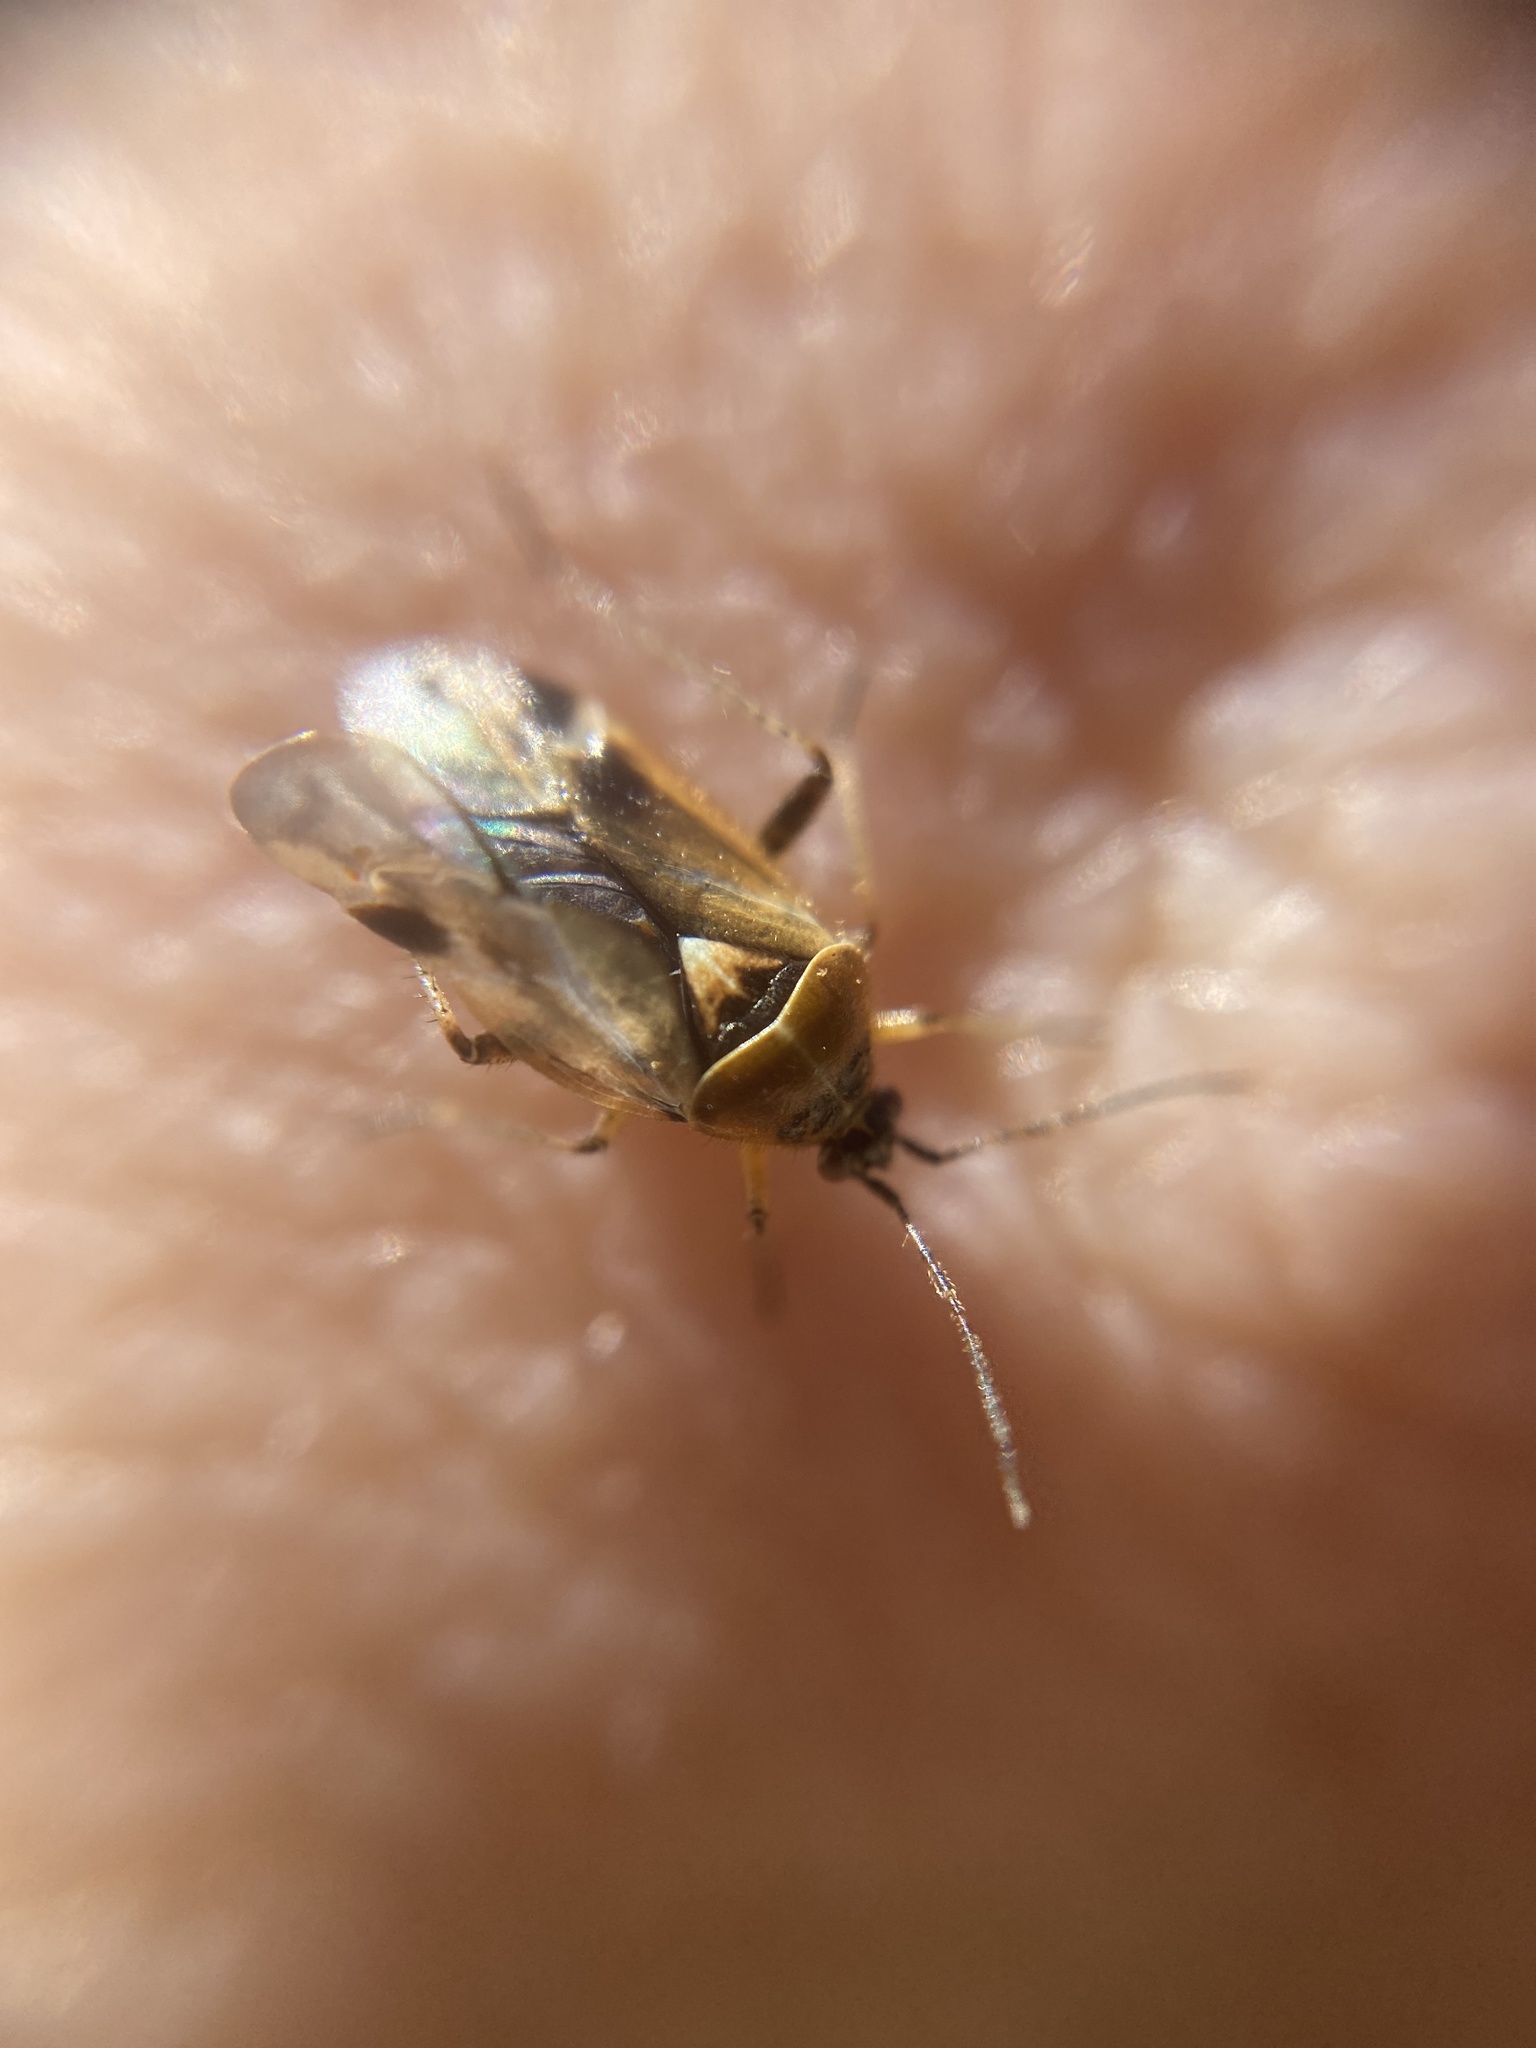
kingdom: Animalia
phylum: Arthropoda
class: Insecta
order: Hemiptera
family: Miridae
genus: Harpocera
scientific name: Harpocera thoracica
